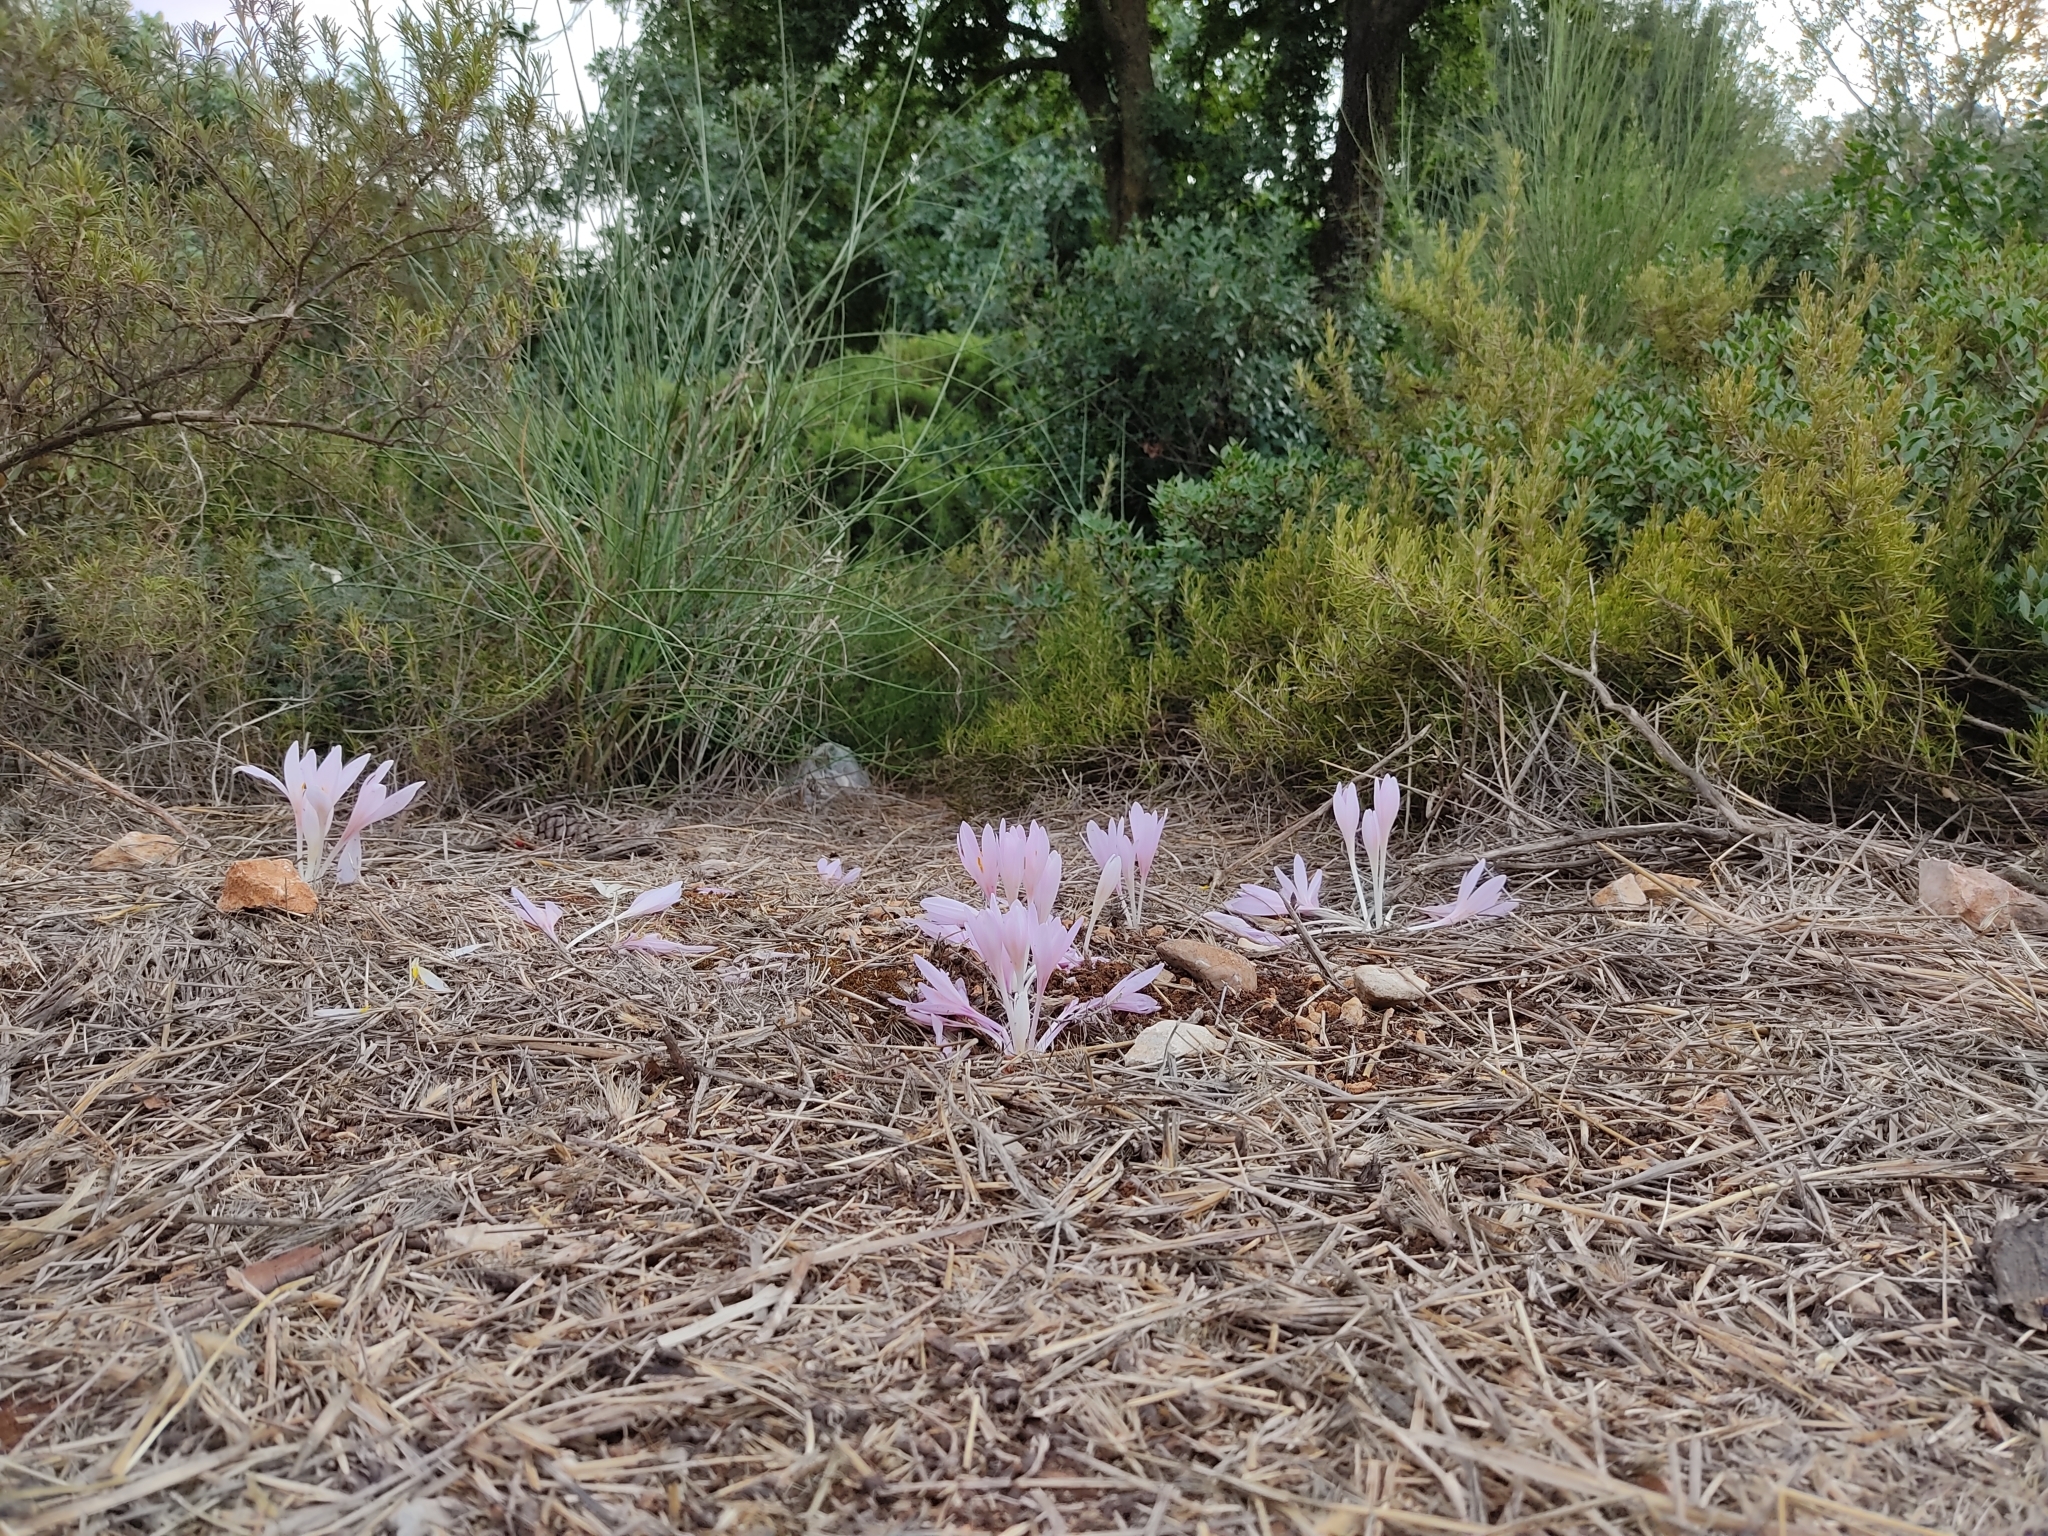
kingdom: Plantae
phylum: Tracheophyta
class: Liliopsida
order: Liliales
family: Colchicaceae
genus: Colchicum
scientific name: Colchicum hierosolymitanum
